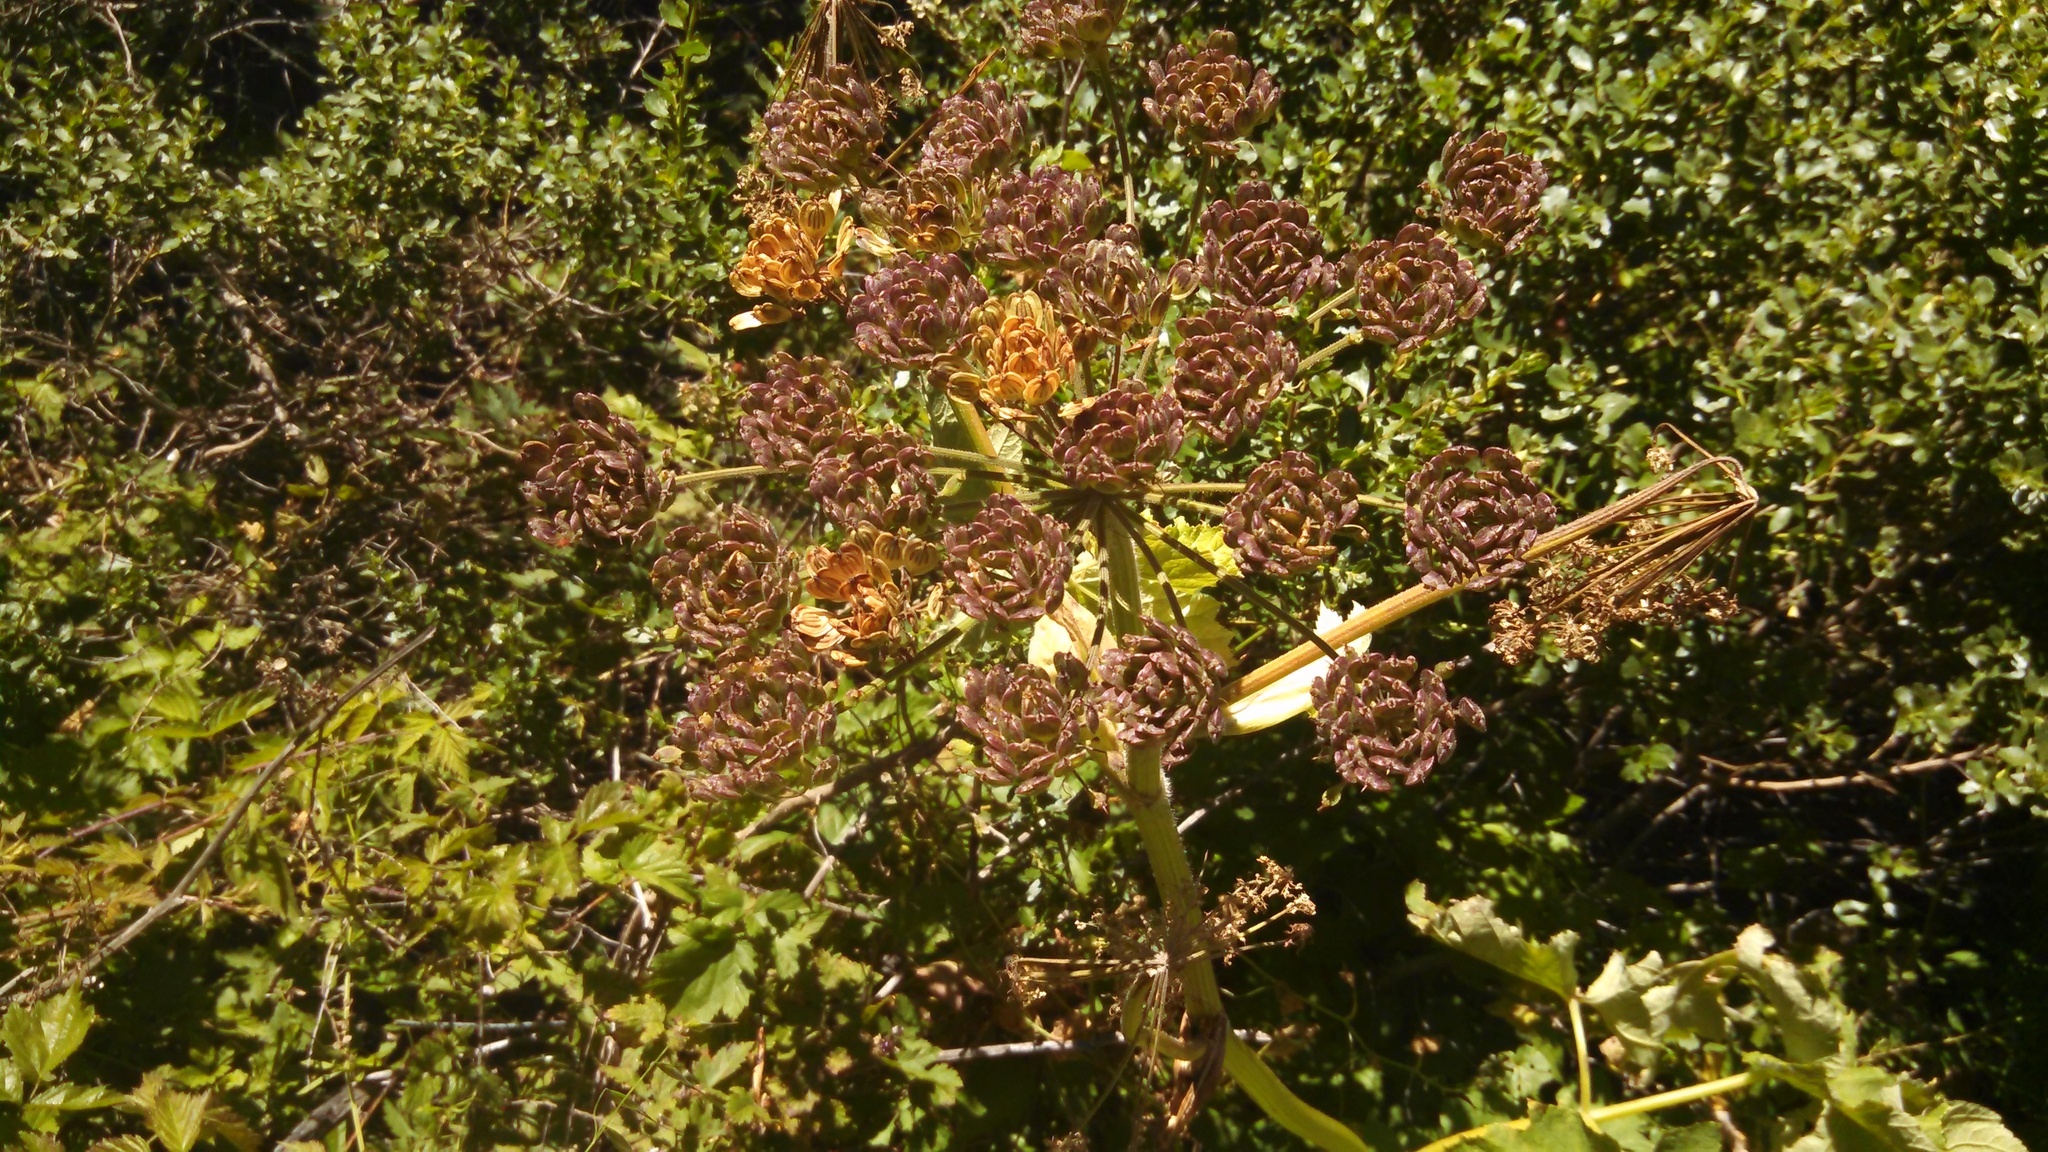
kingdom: Plantae
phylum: Tracheophyta
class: Magnoliopsida
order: Apiales
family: Apiaceae
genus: Heracleum
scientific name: Heracleum maximum
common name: American cow parsnip
